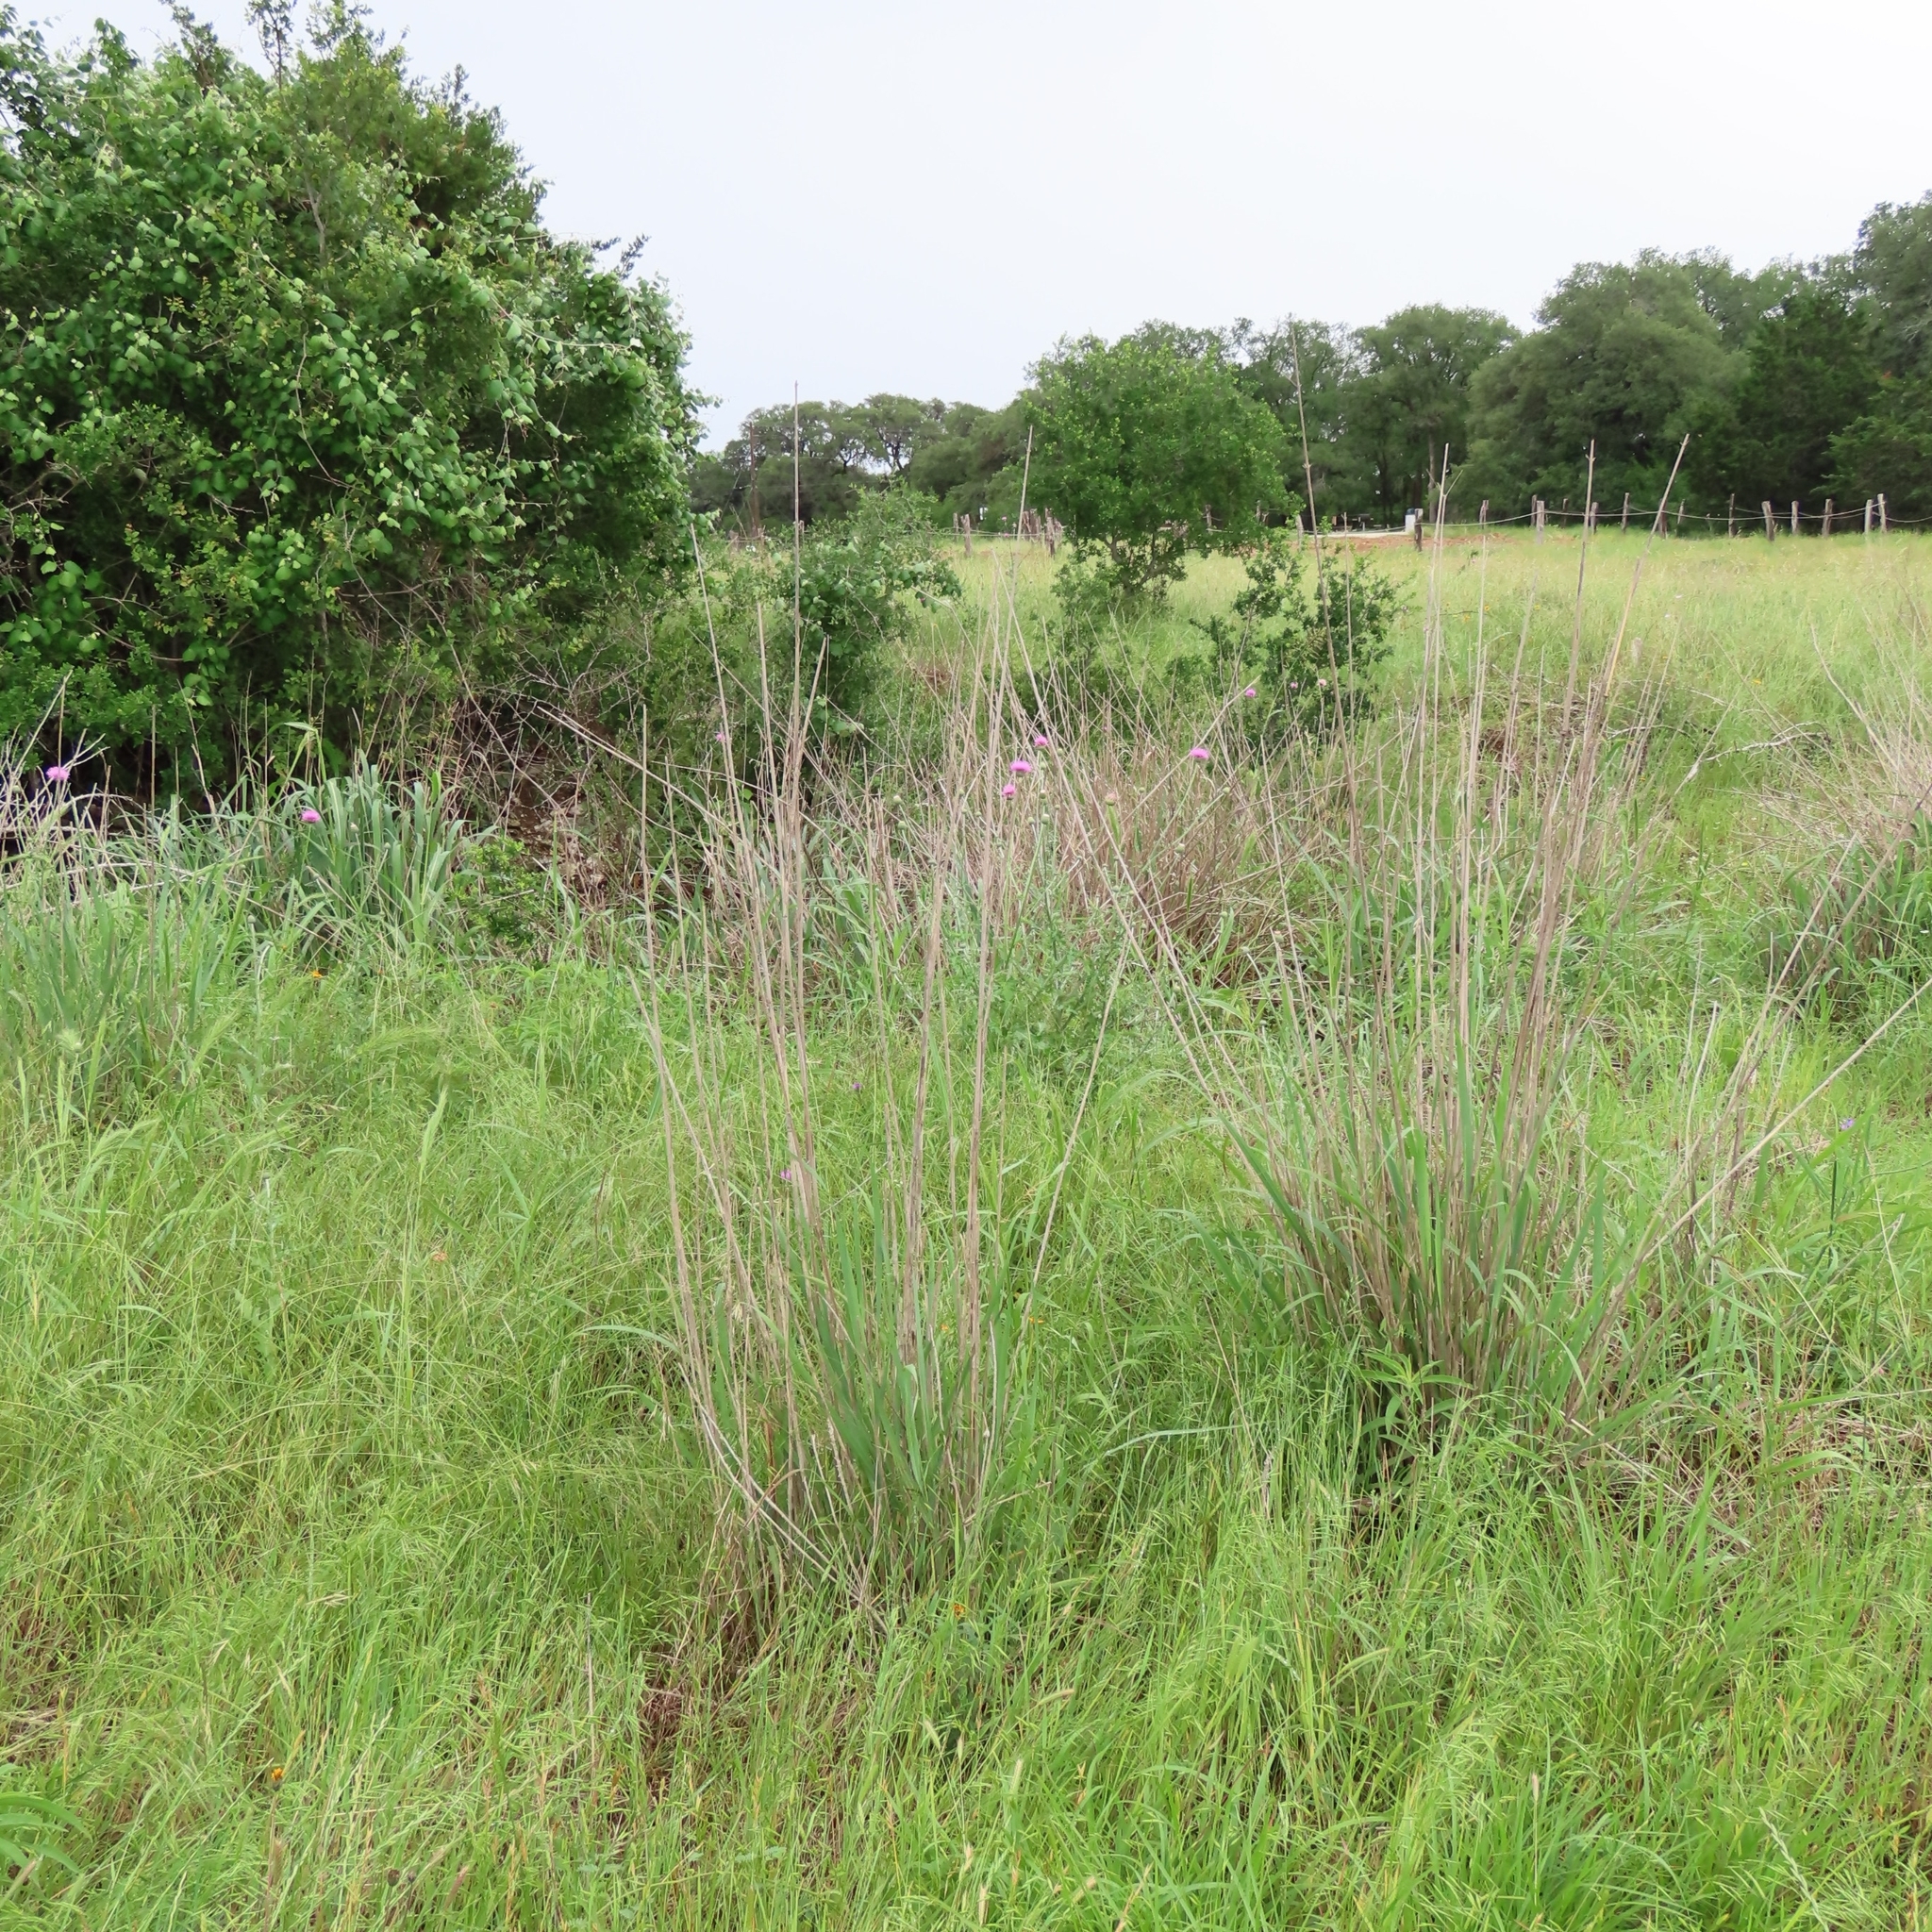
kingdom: Plantae
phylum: Tracheophyta
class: Liliopsida
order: Poales
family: Poaceae
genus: Panicum
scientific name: Panicum virgatum
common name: Switchgrass
